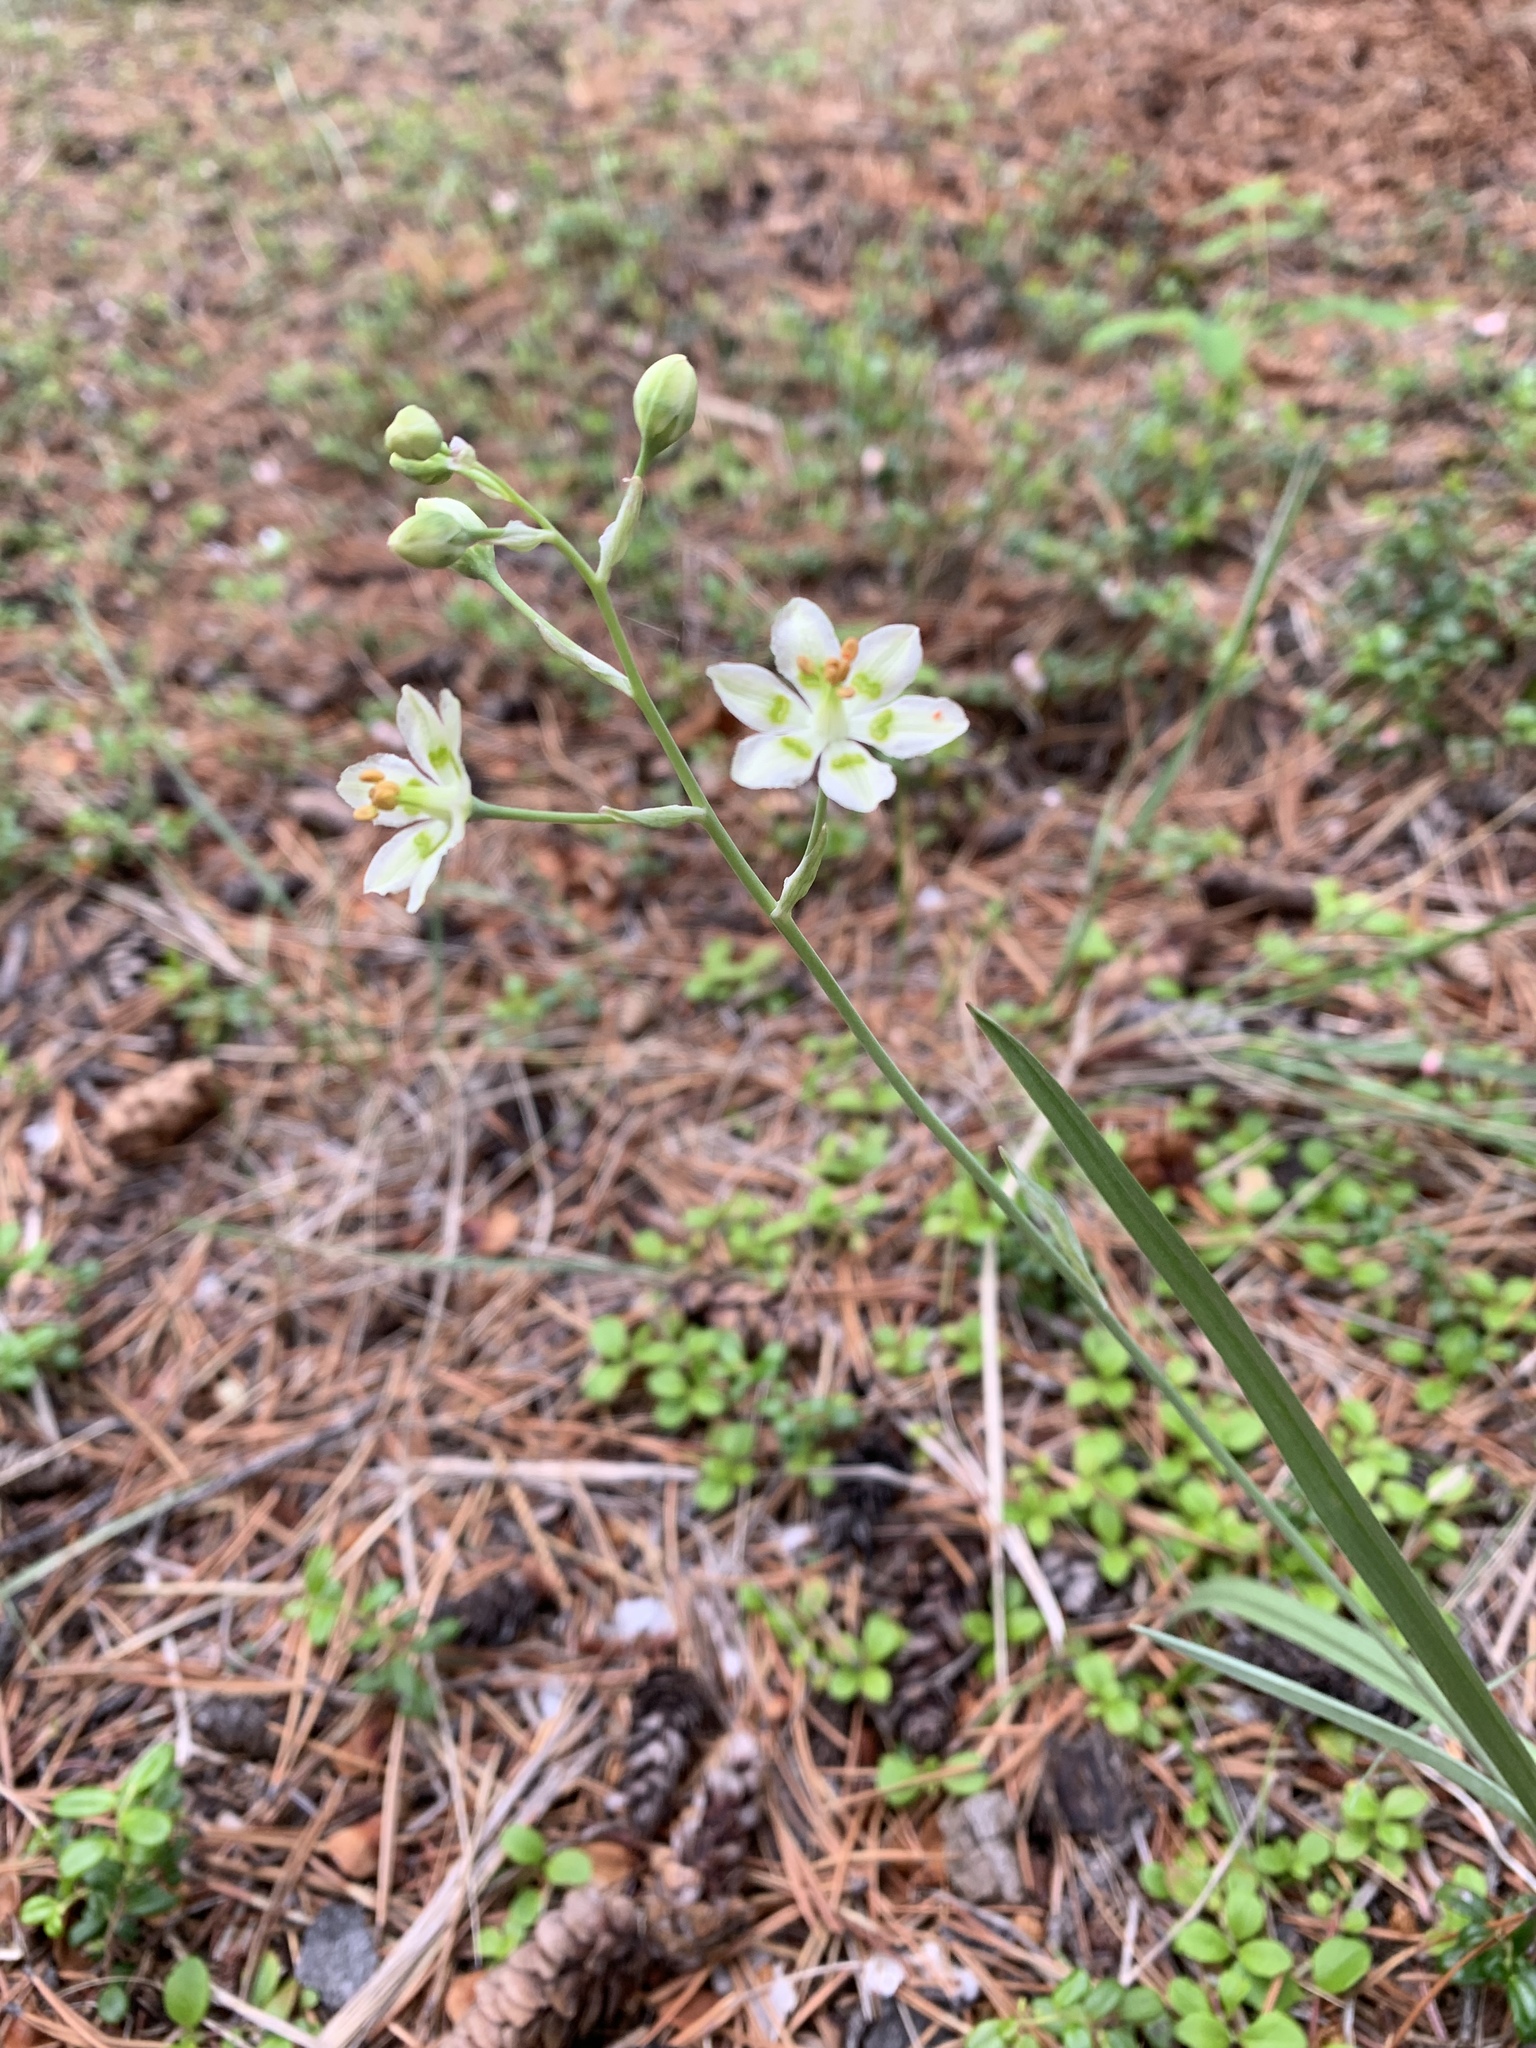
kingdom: Plantae
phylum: Tracheophyta
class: Liliopsida
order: Liliales
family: Melanthiaceae
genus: Anticlea
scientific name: Anticlea elegans
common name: Mountain death camas
